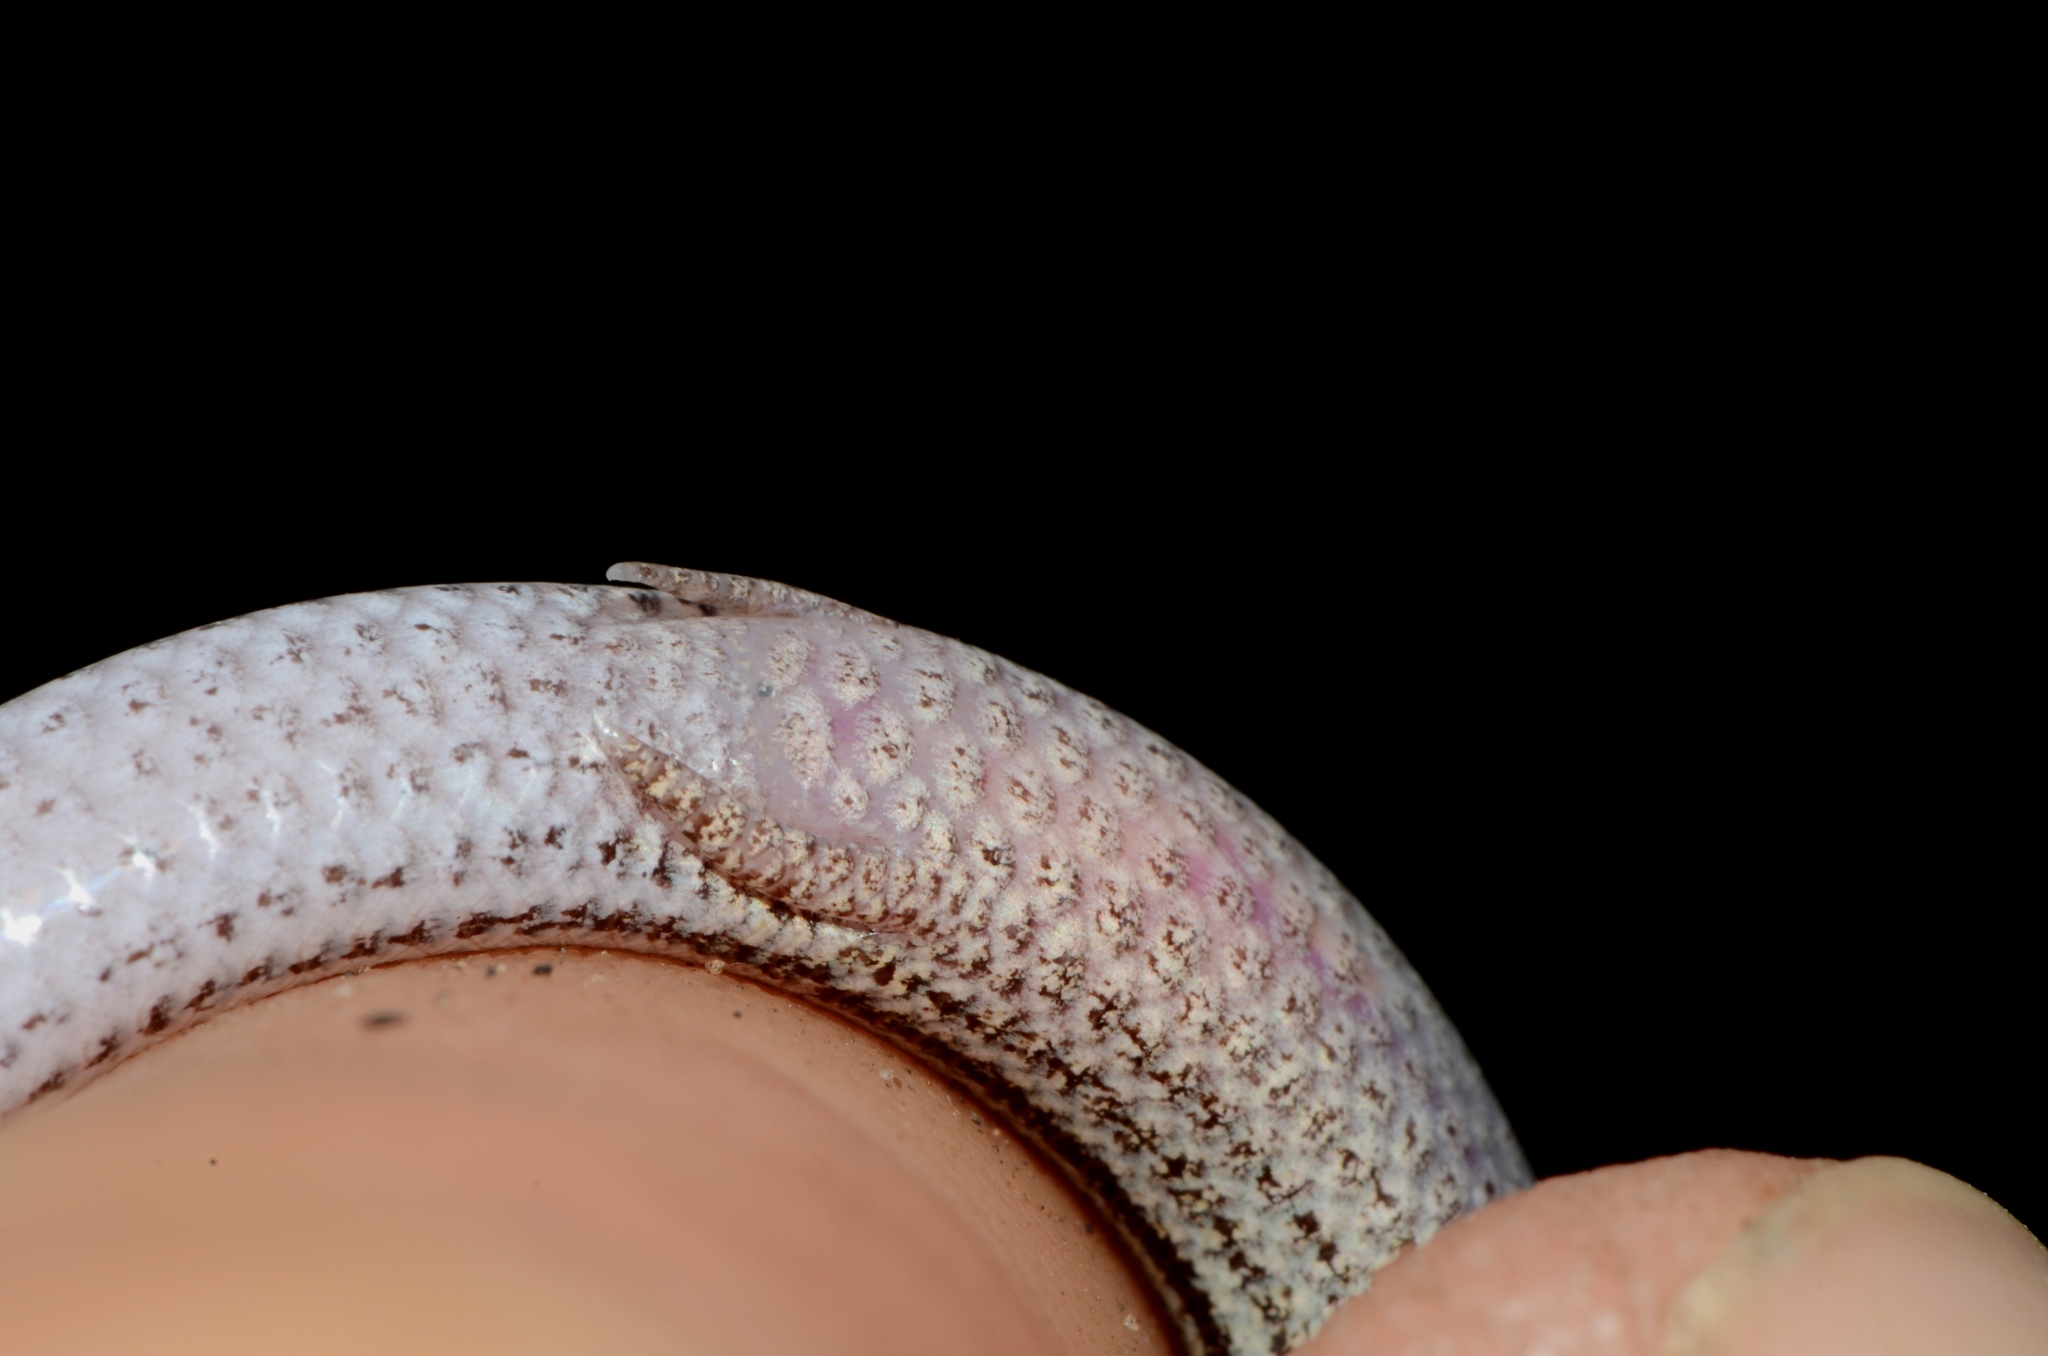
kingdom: Animalia
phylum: Chordata
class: Squamata
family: Scincidae
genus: Scelotes
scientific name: Scelotes gronovii
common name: Gronovi's dwarf burrowing skink
